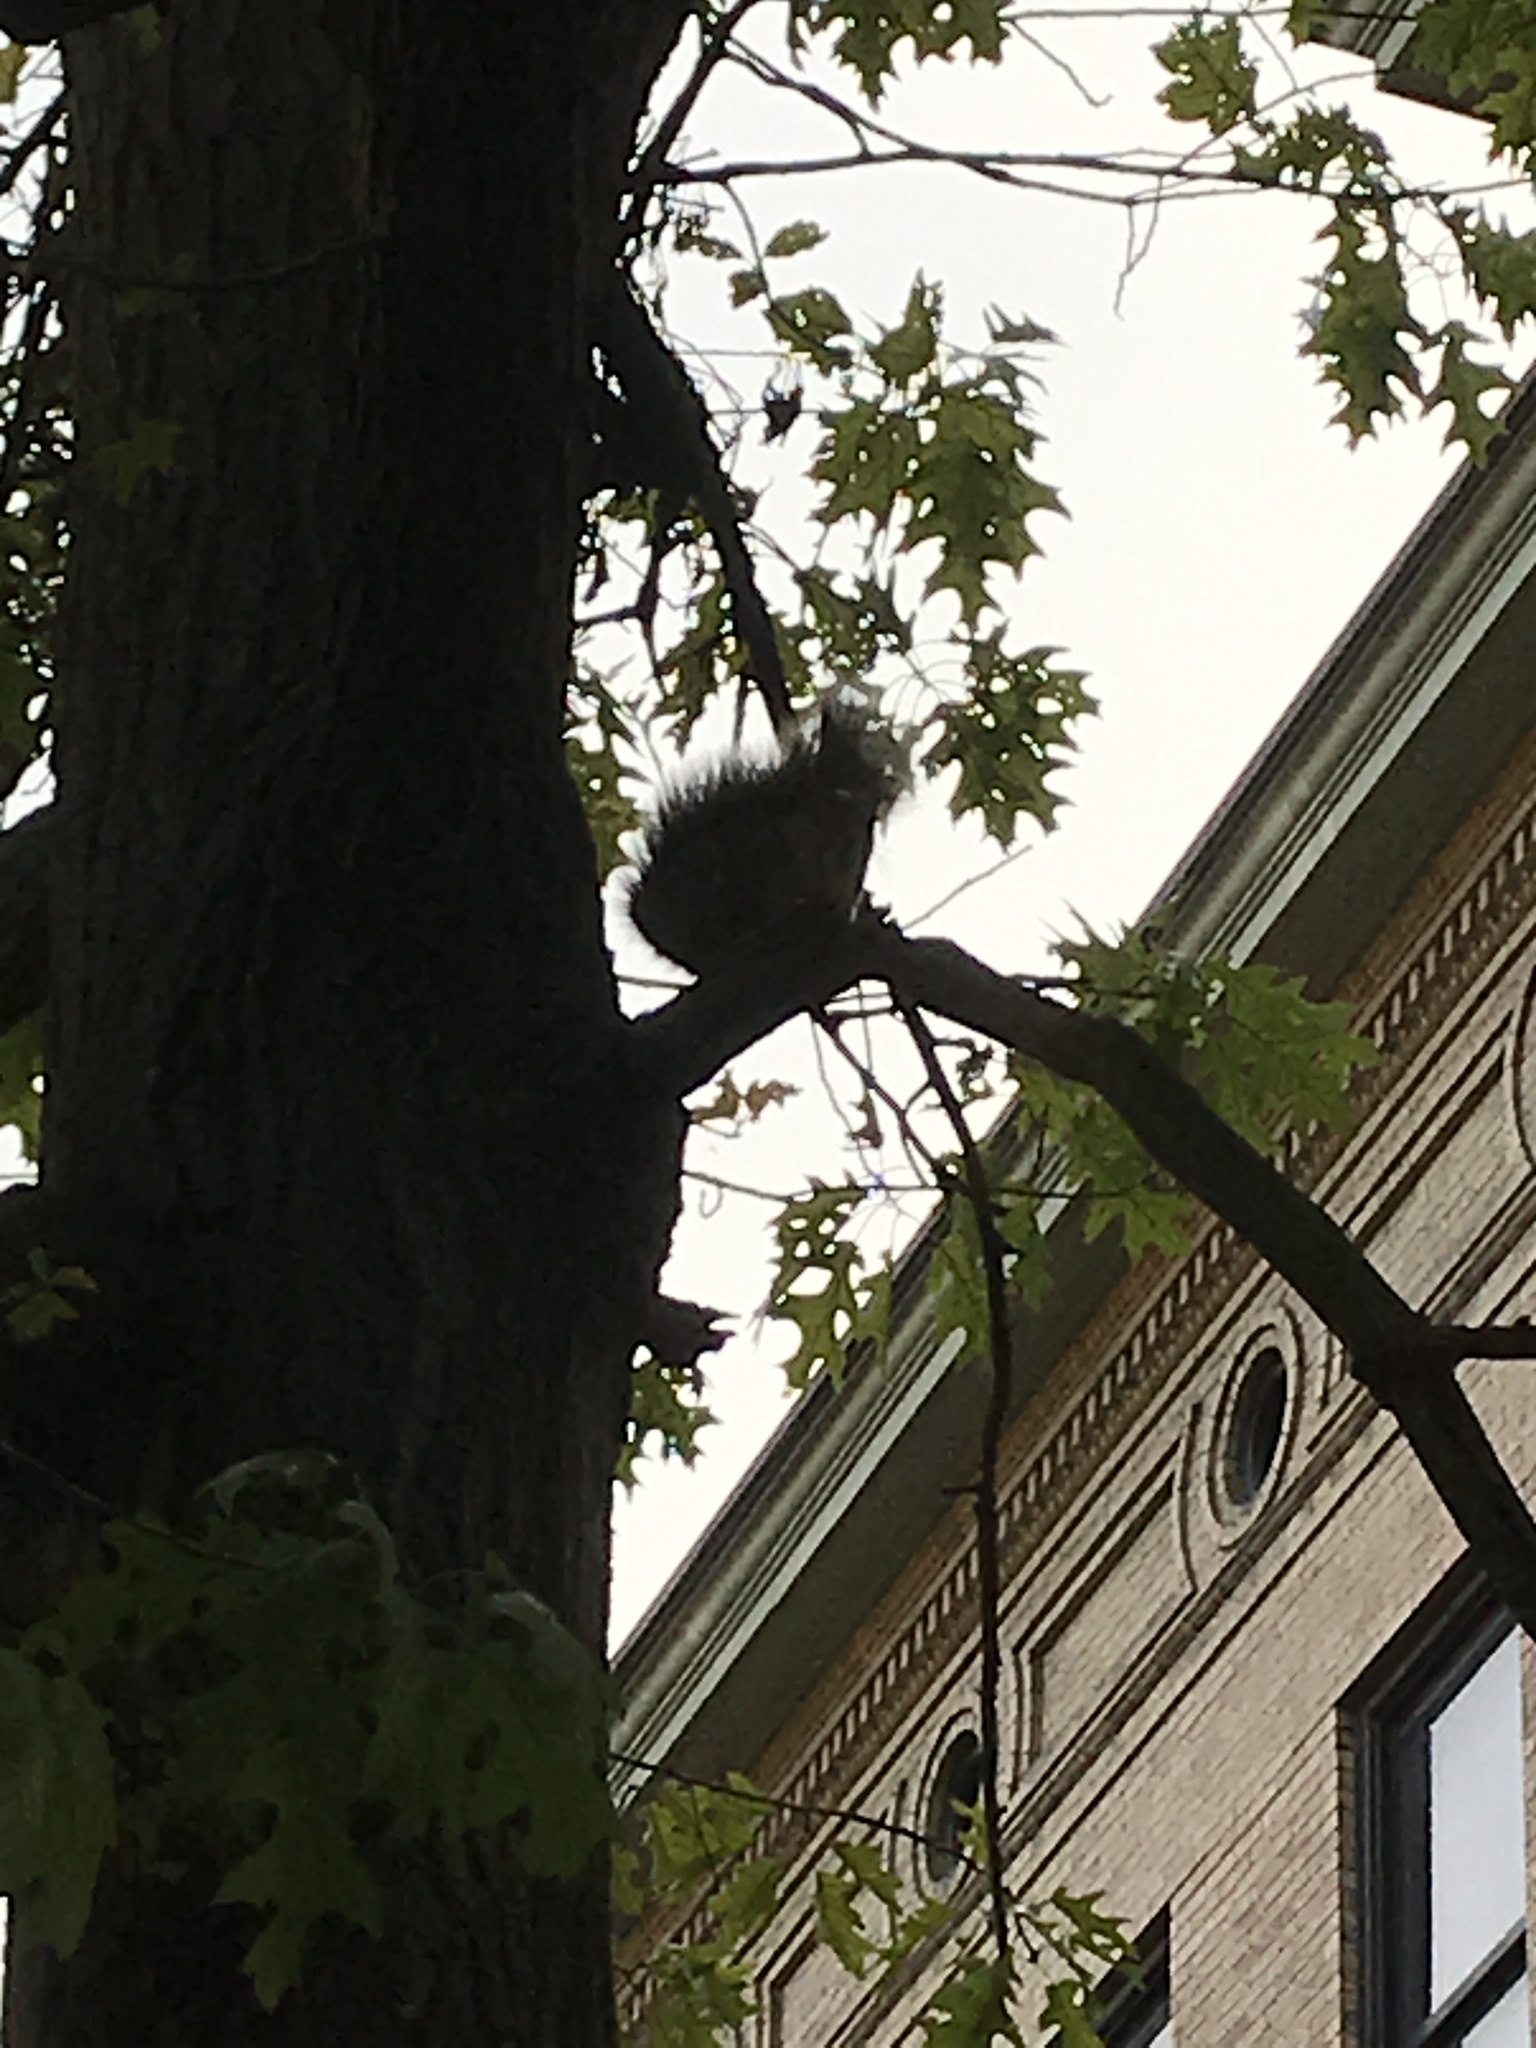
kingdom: Animalia
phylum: Chordata
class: Mammalia
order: Rodentia
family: Sciuridae
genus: Sciurus
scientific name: Sciurus niger
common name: Fox squirrel
